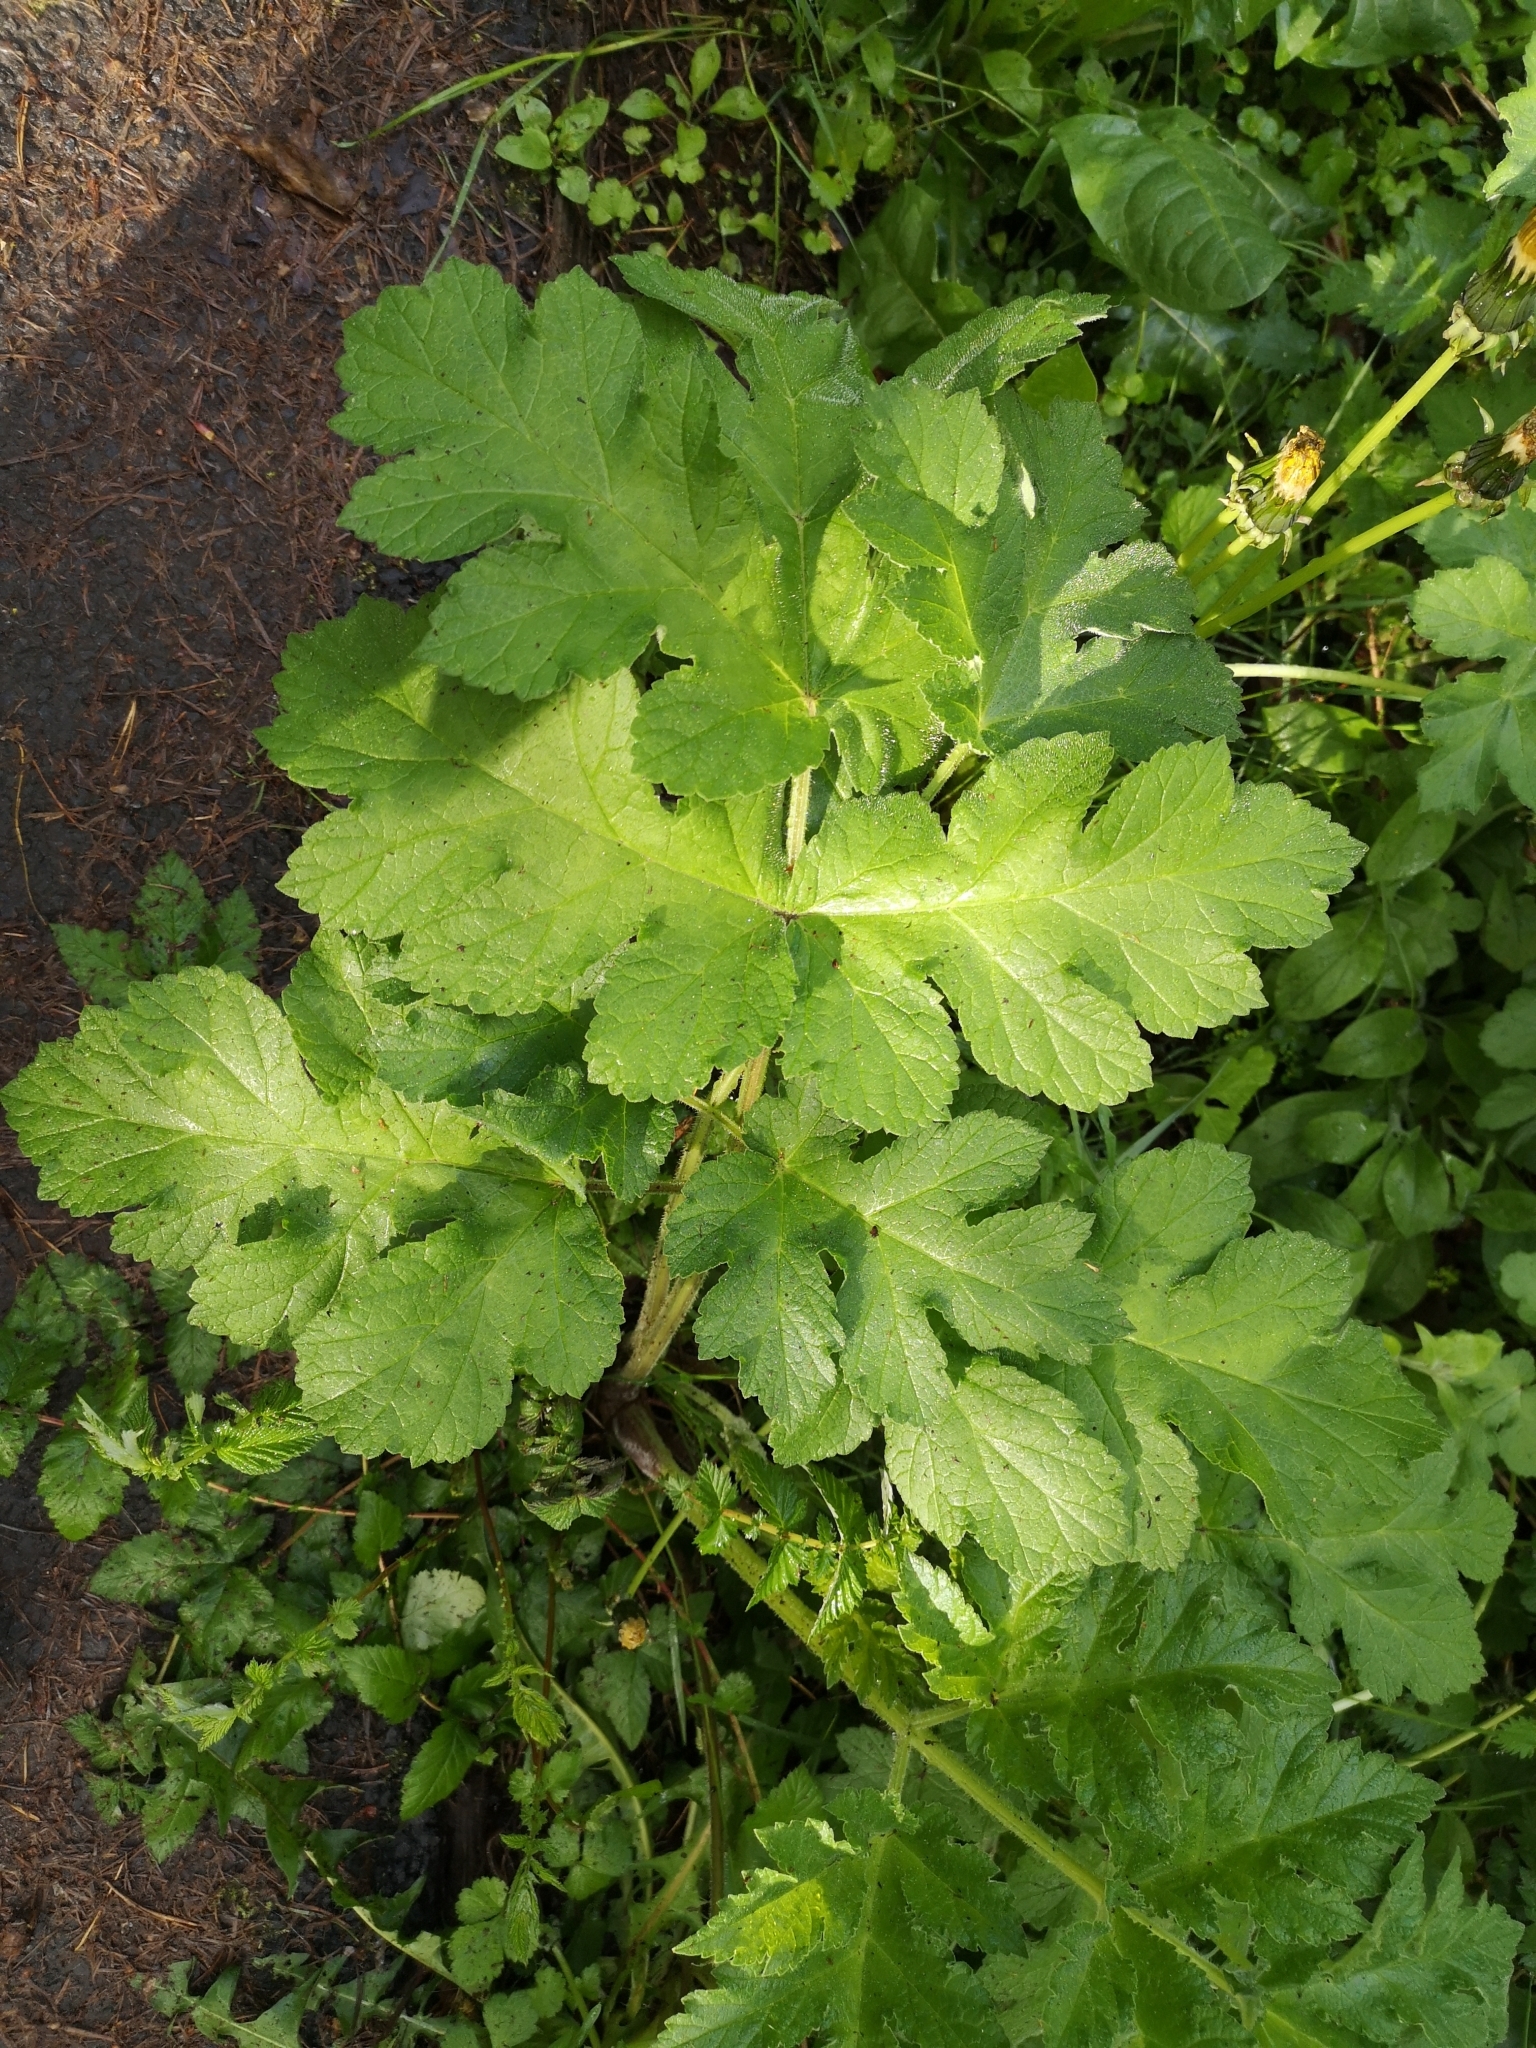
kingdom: Plantae
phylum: Tracheophyta
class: Magnoliopsida
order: Apiales
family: Apiaceae
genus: Heracleum
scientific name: Heracleum sphondylium
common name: Hogweed
